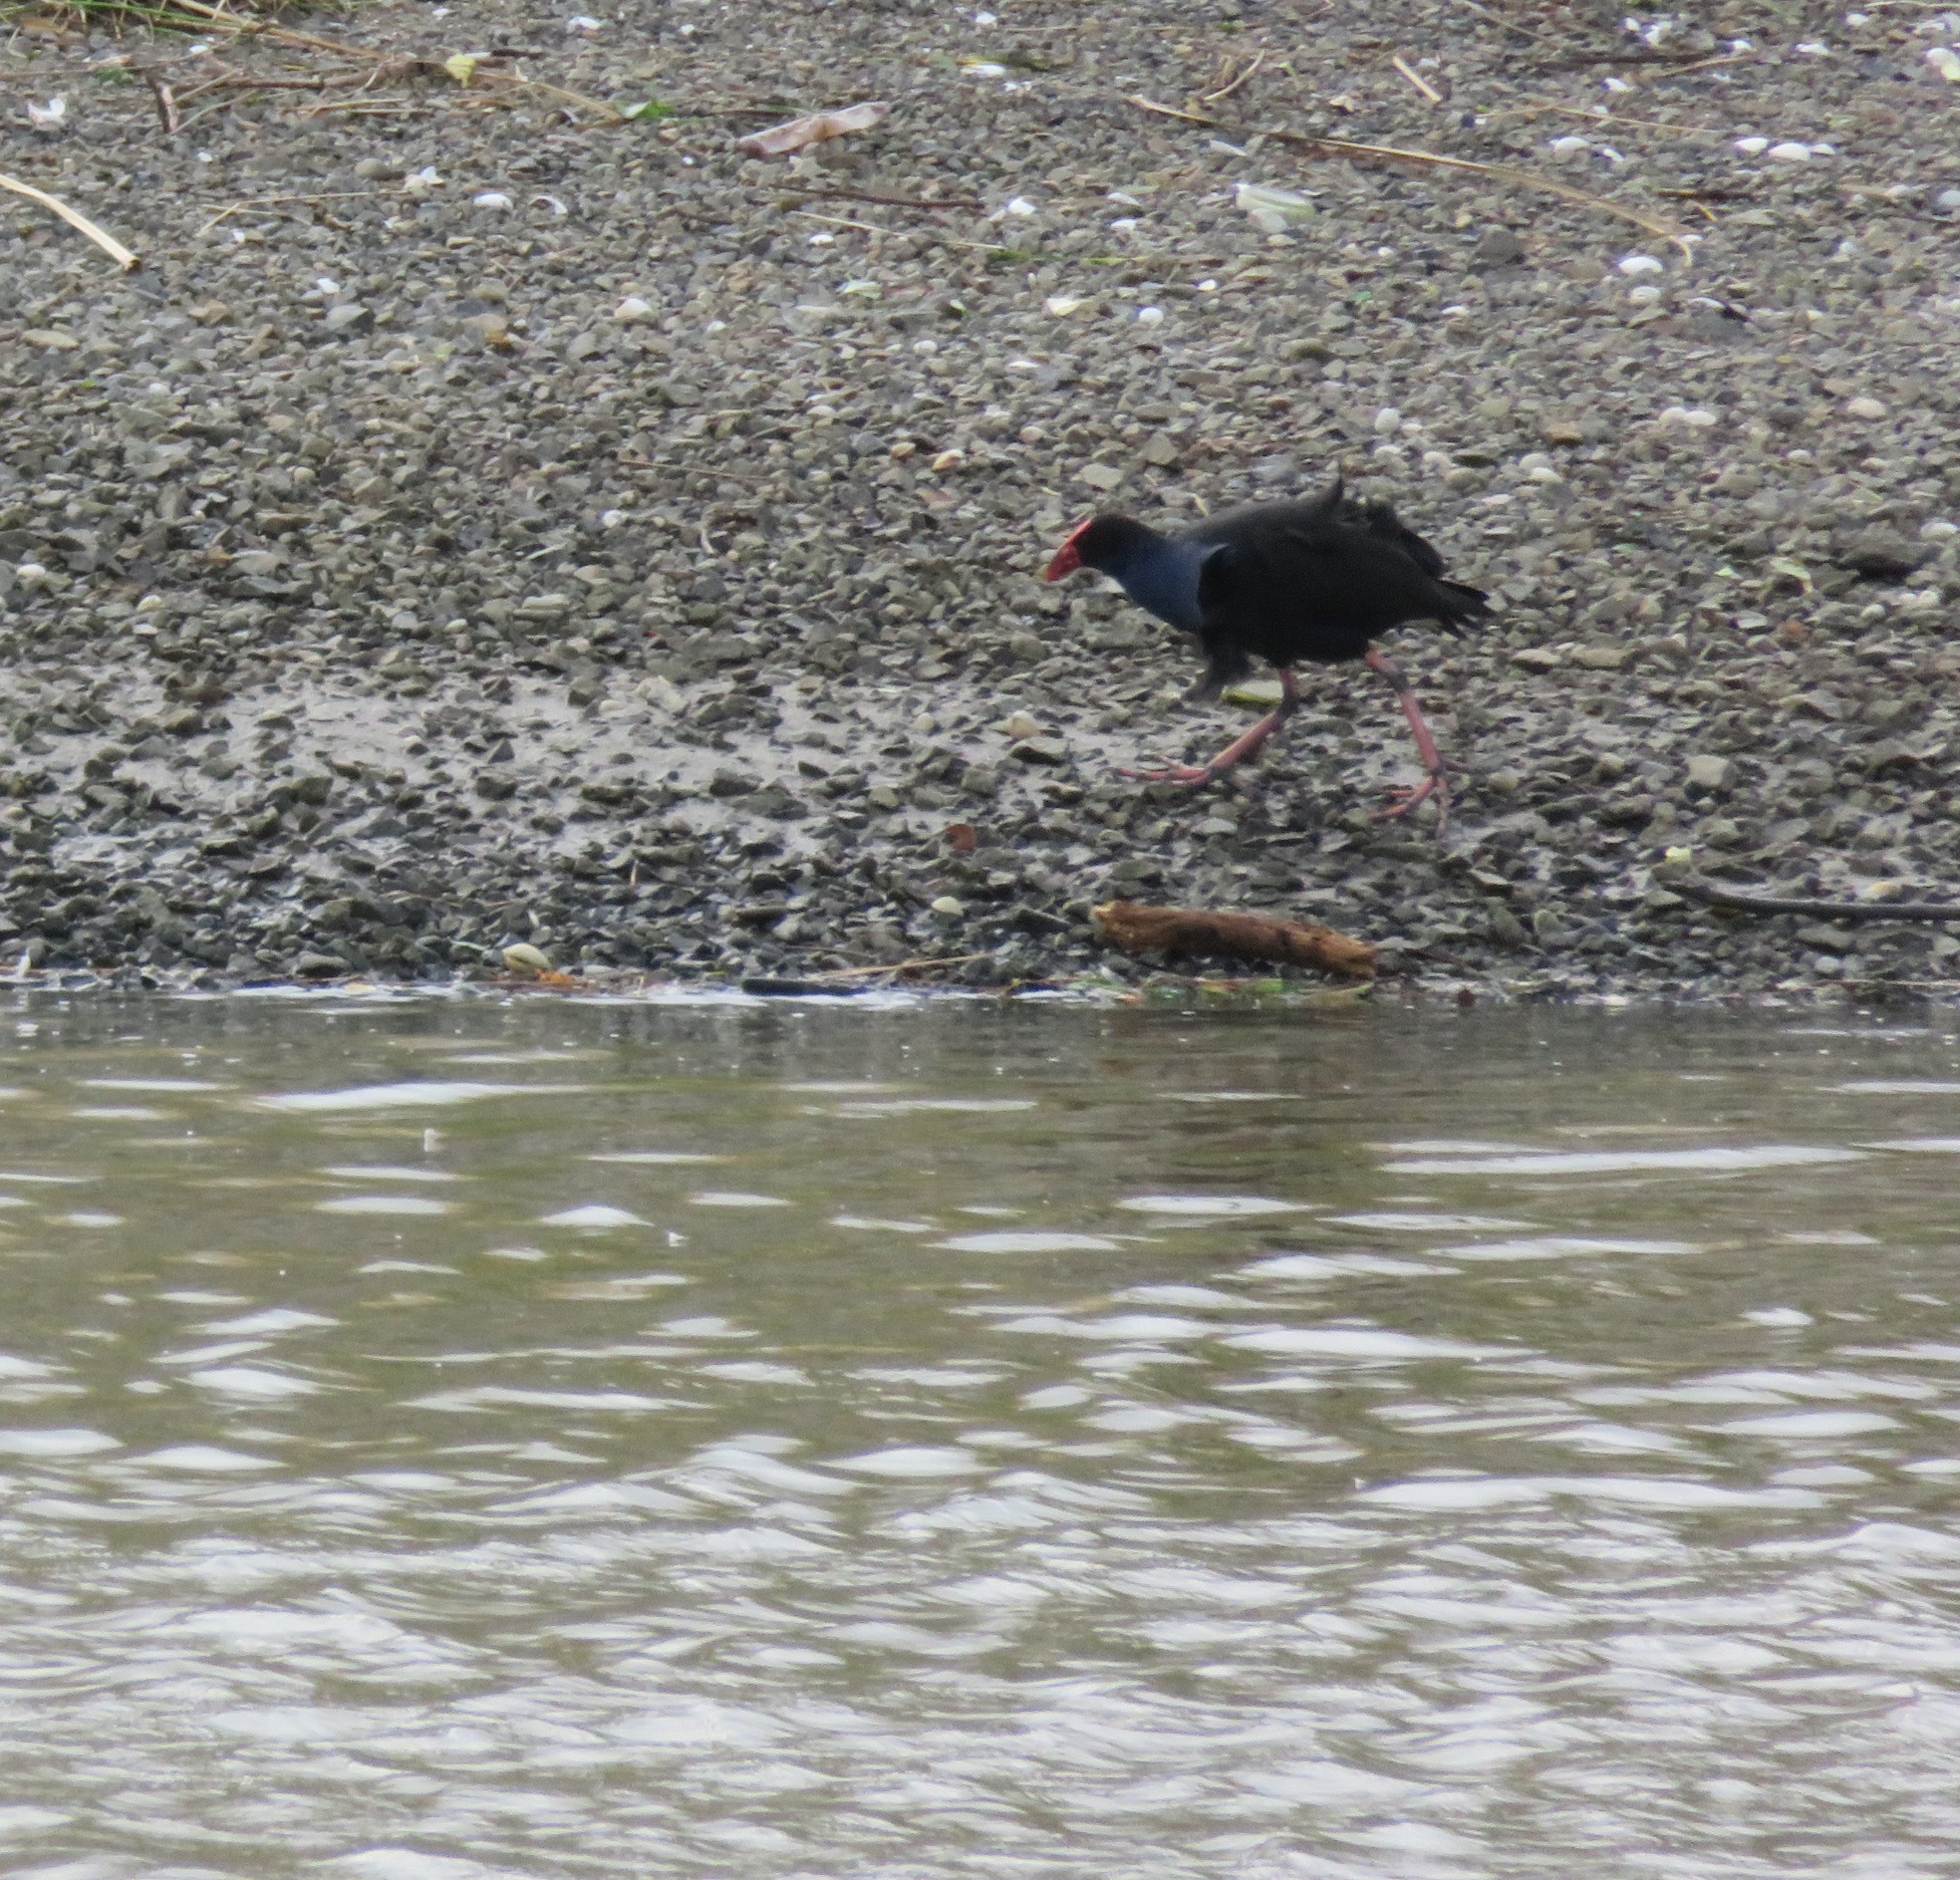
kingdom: Animalia
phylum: Chordata
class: Aves
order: Gruiformes
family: Rallidae
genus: Porphyrio
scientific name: Porphyrio melanotus
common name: Australasian swamphen
